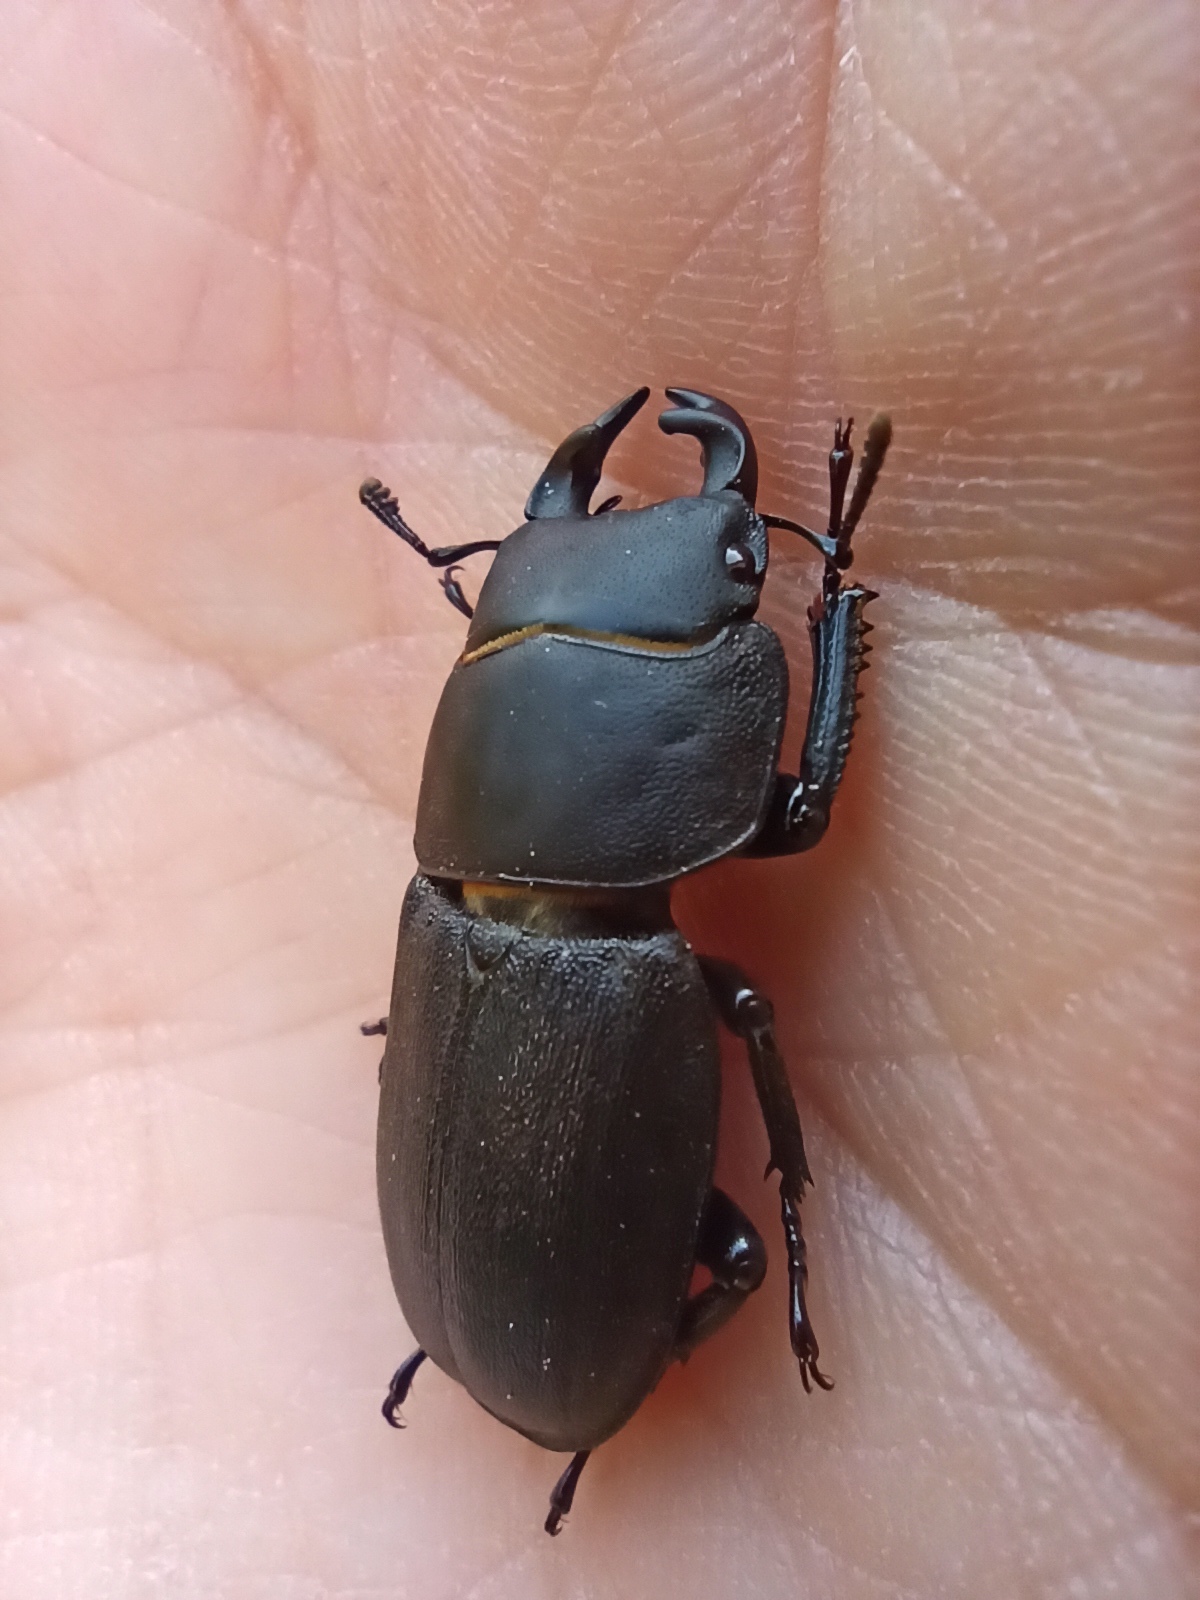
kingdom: Animalia
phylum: Arthropoda
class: Insecta
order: Coleoptera
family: Lucanidae
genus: Dorcus
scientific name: Dorcus parallelipipedus
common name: Lesser stag beetle
